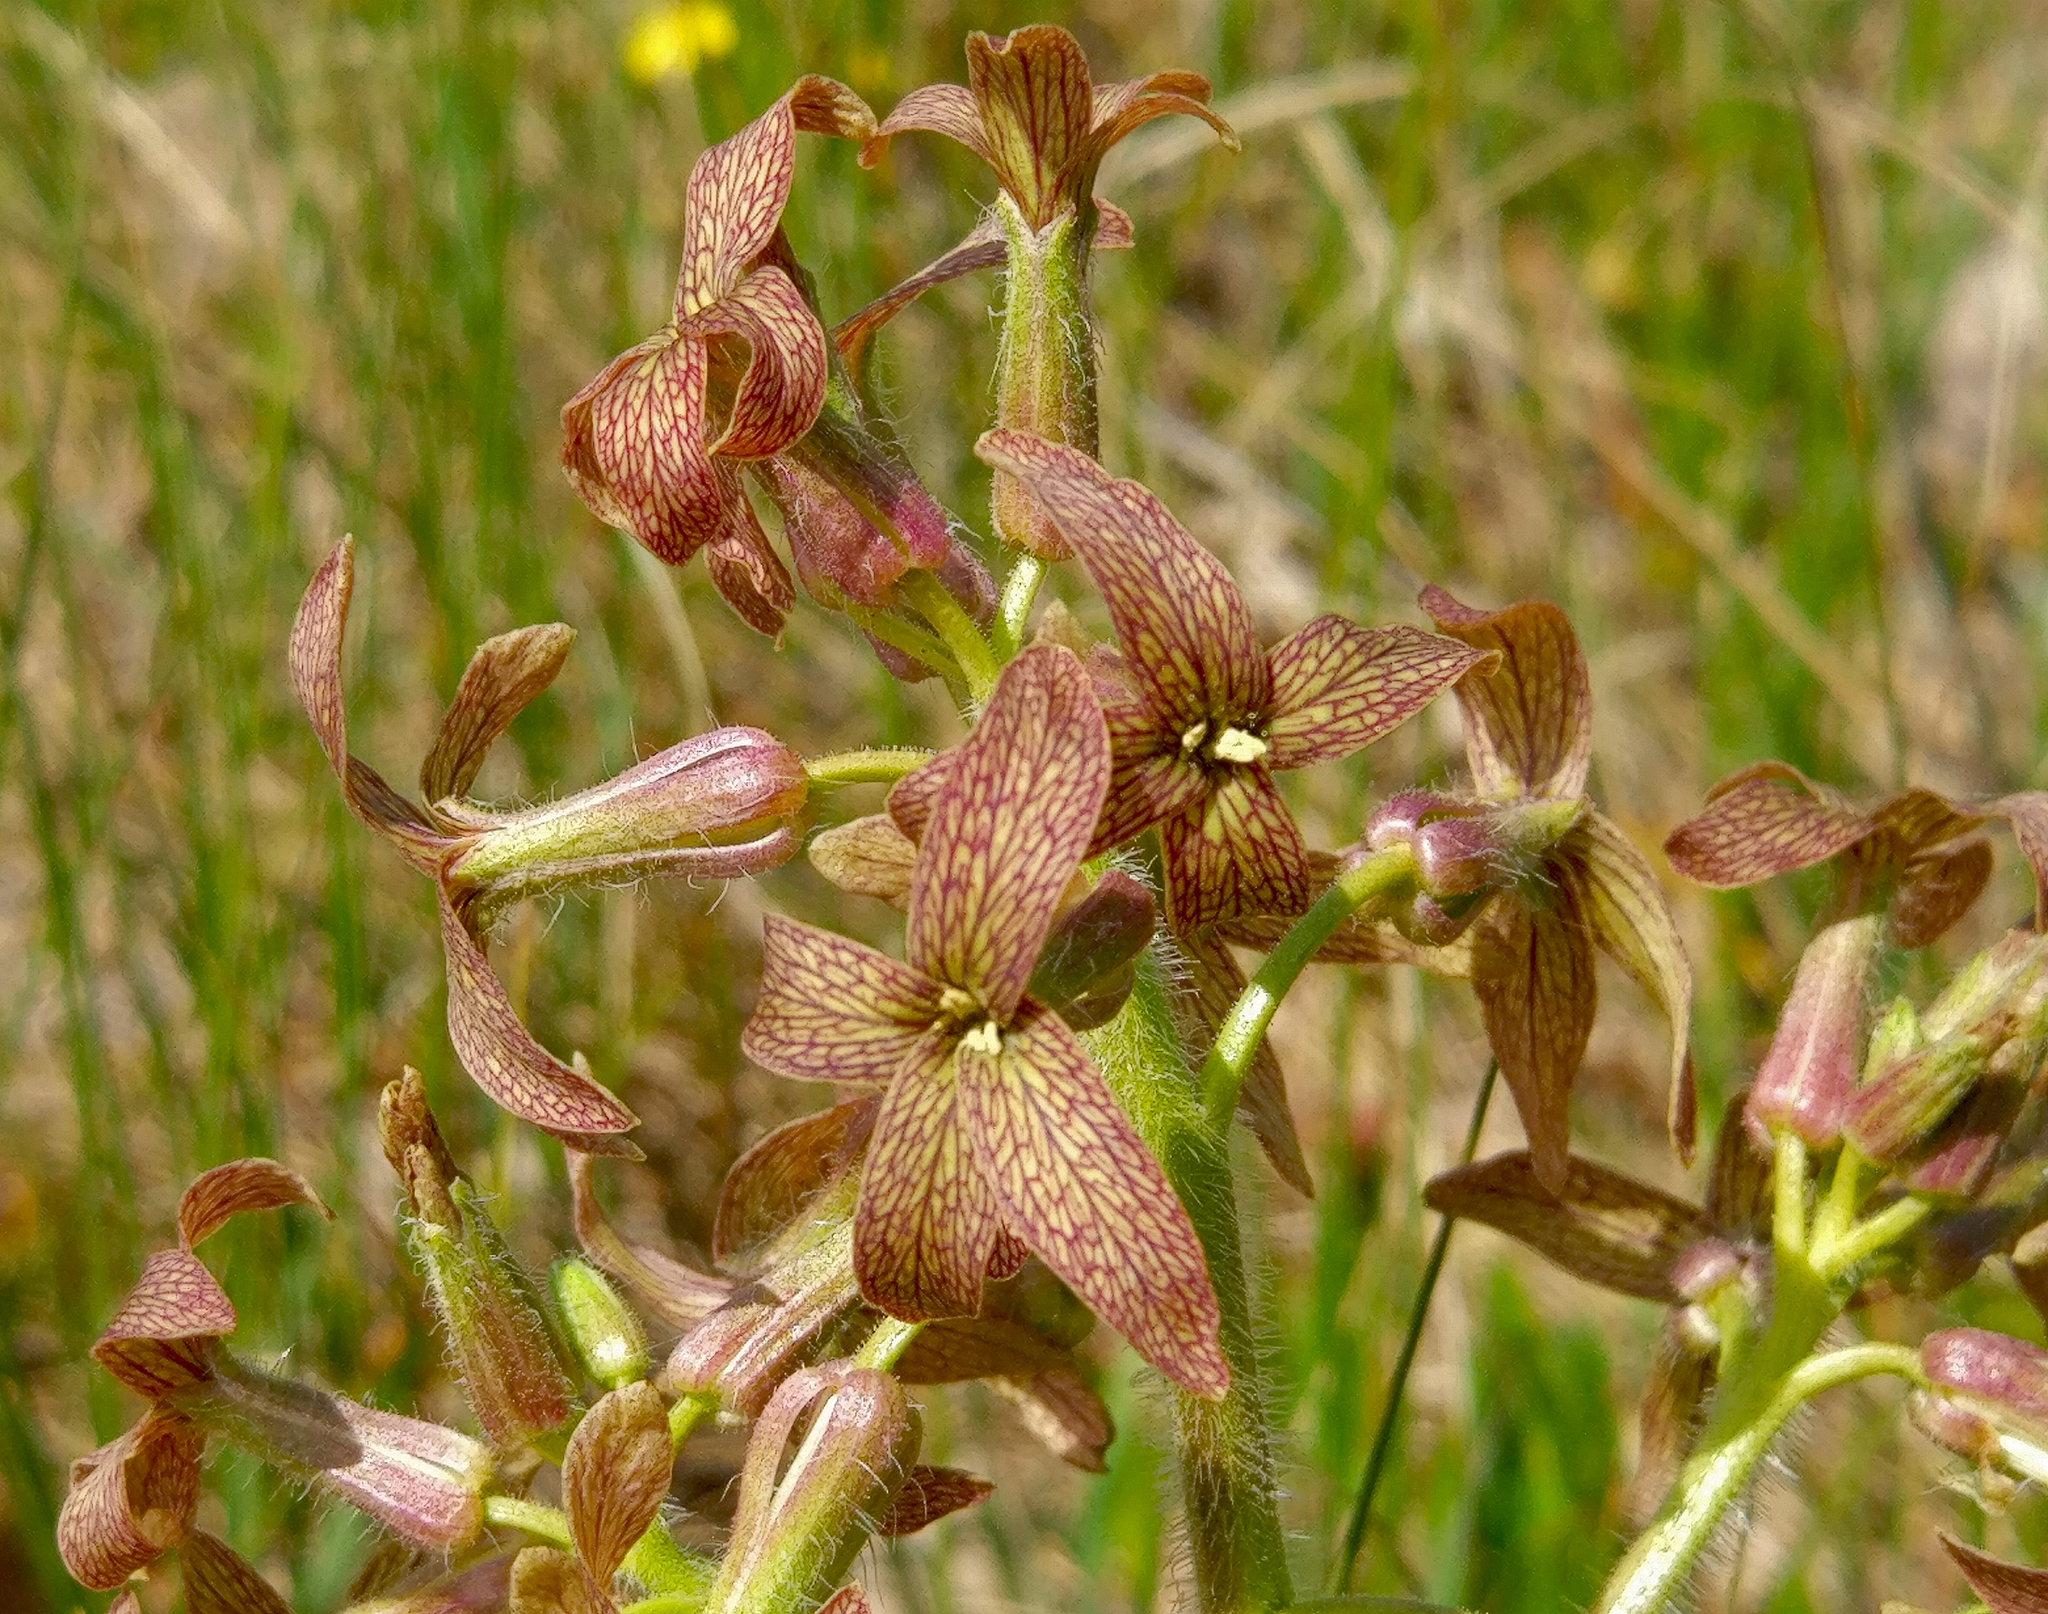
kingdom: Plantae
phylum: Tracheophyta
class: Magnoliopsida
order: Brassicales
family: Brassicaceae
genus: Hesperis
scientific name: Hesperis tristis
